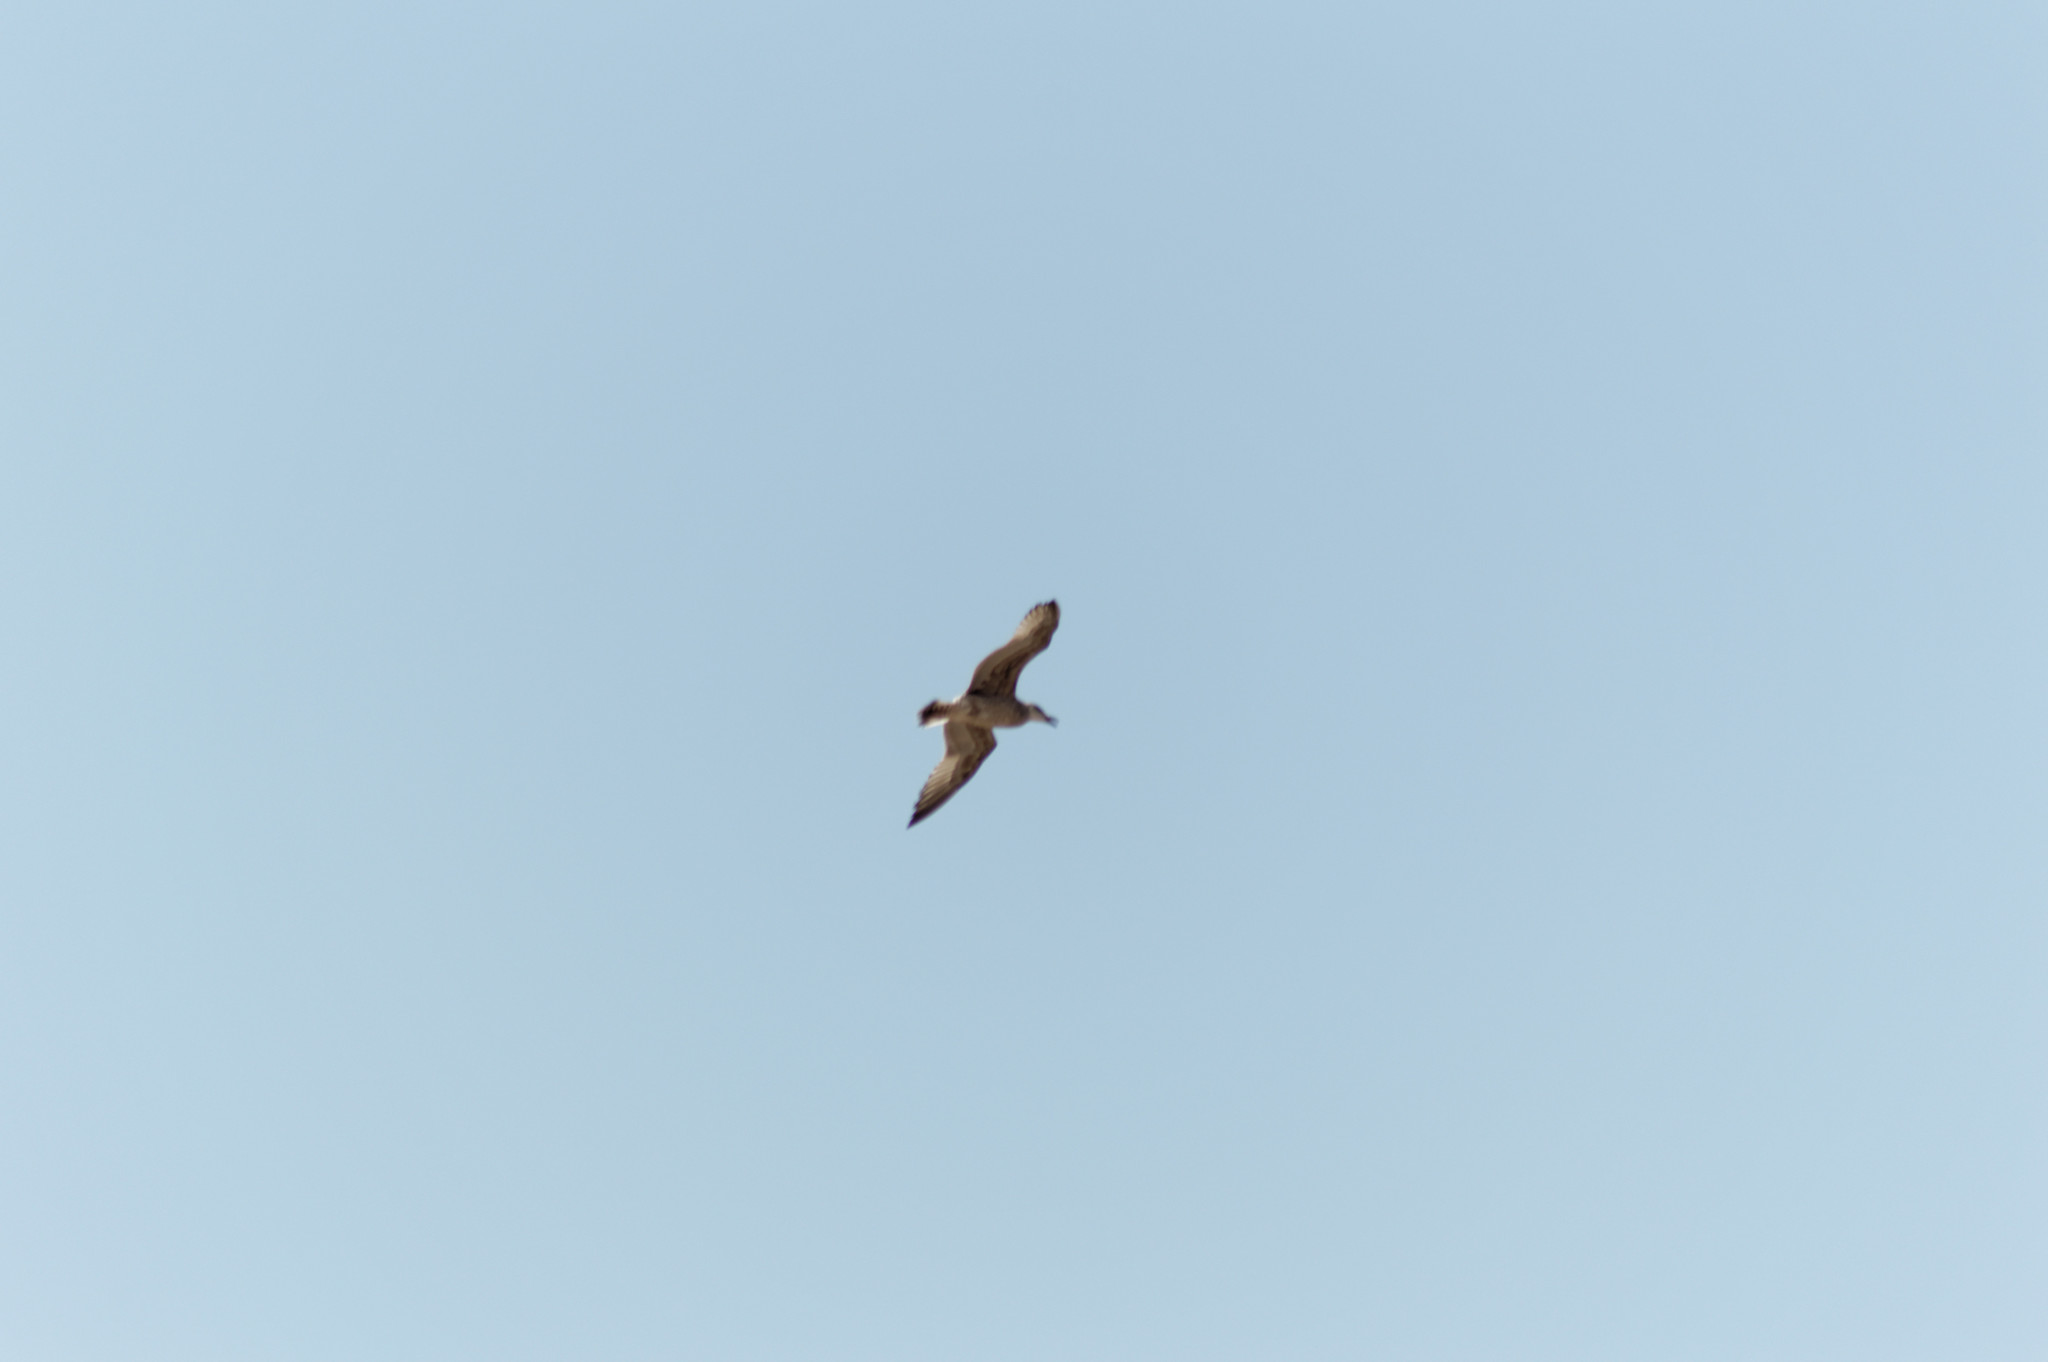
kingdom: Animalia
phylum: Chordata
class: Aves
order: Charadriiformes
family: Laridae
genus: Larus
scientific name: Larus michahellis
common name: Yellow-legged gull
